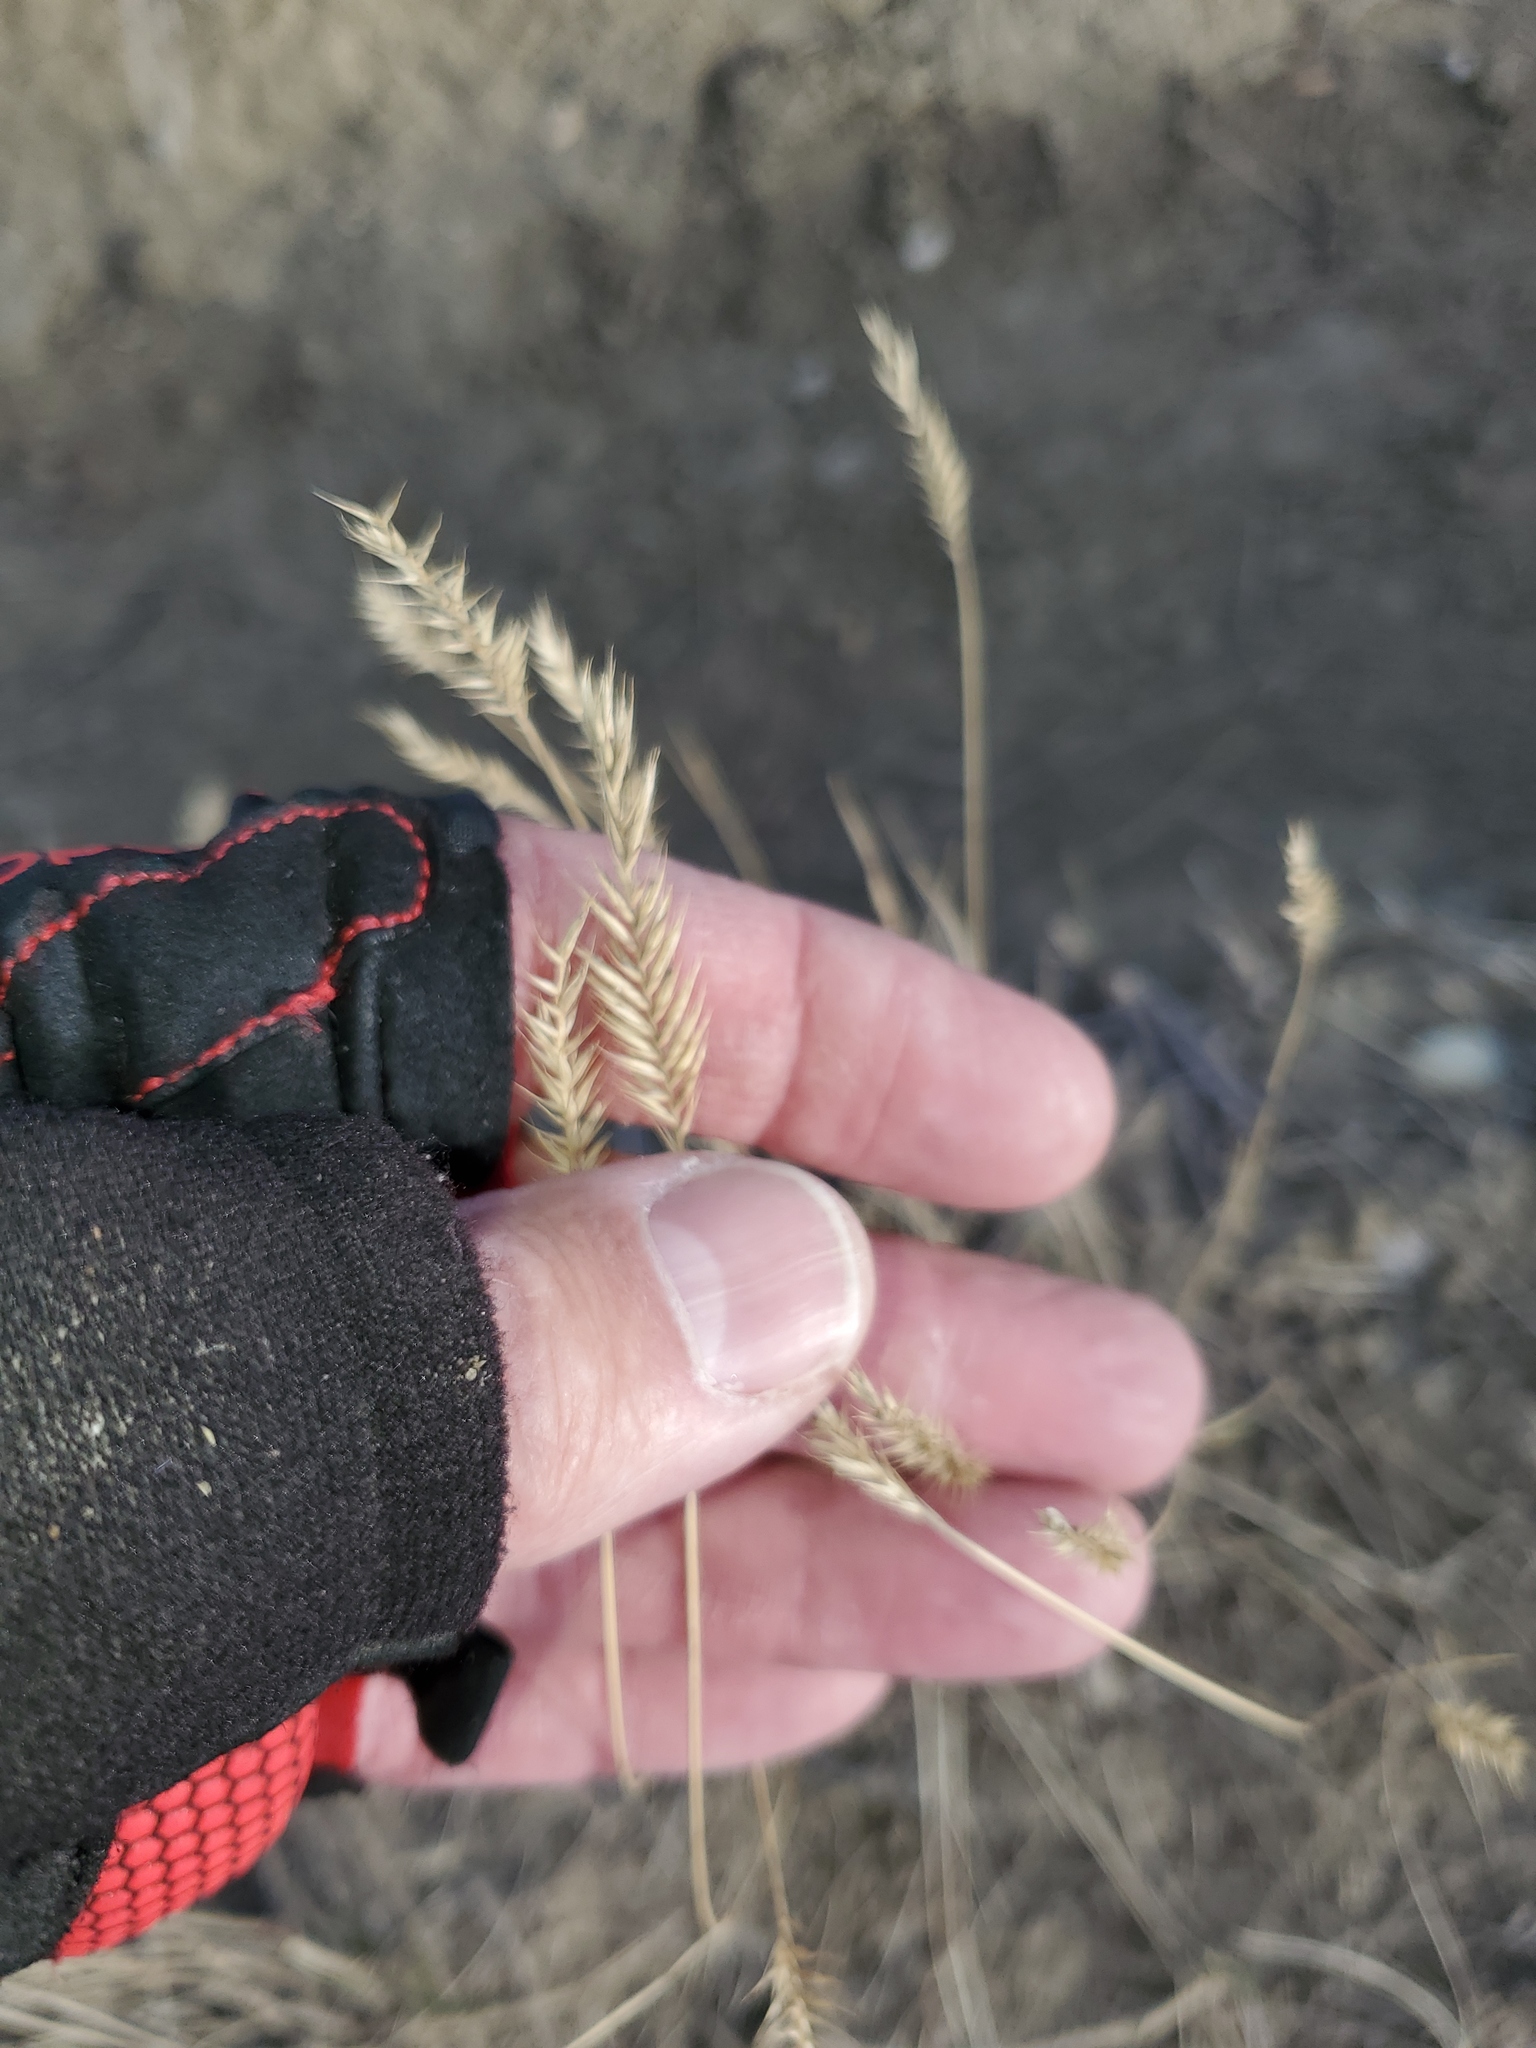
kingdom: Plantae
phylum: Tracheophyta
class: Liliopsida
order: Poales
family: Poaceae
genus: Agropyron
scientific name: Agropyron cristatum
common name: Crested wheatgrass
